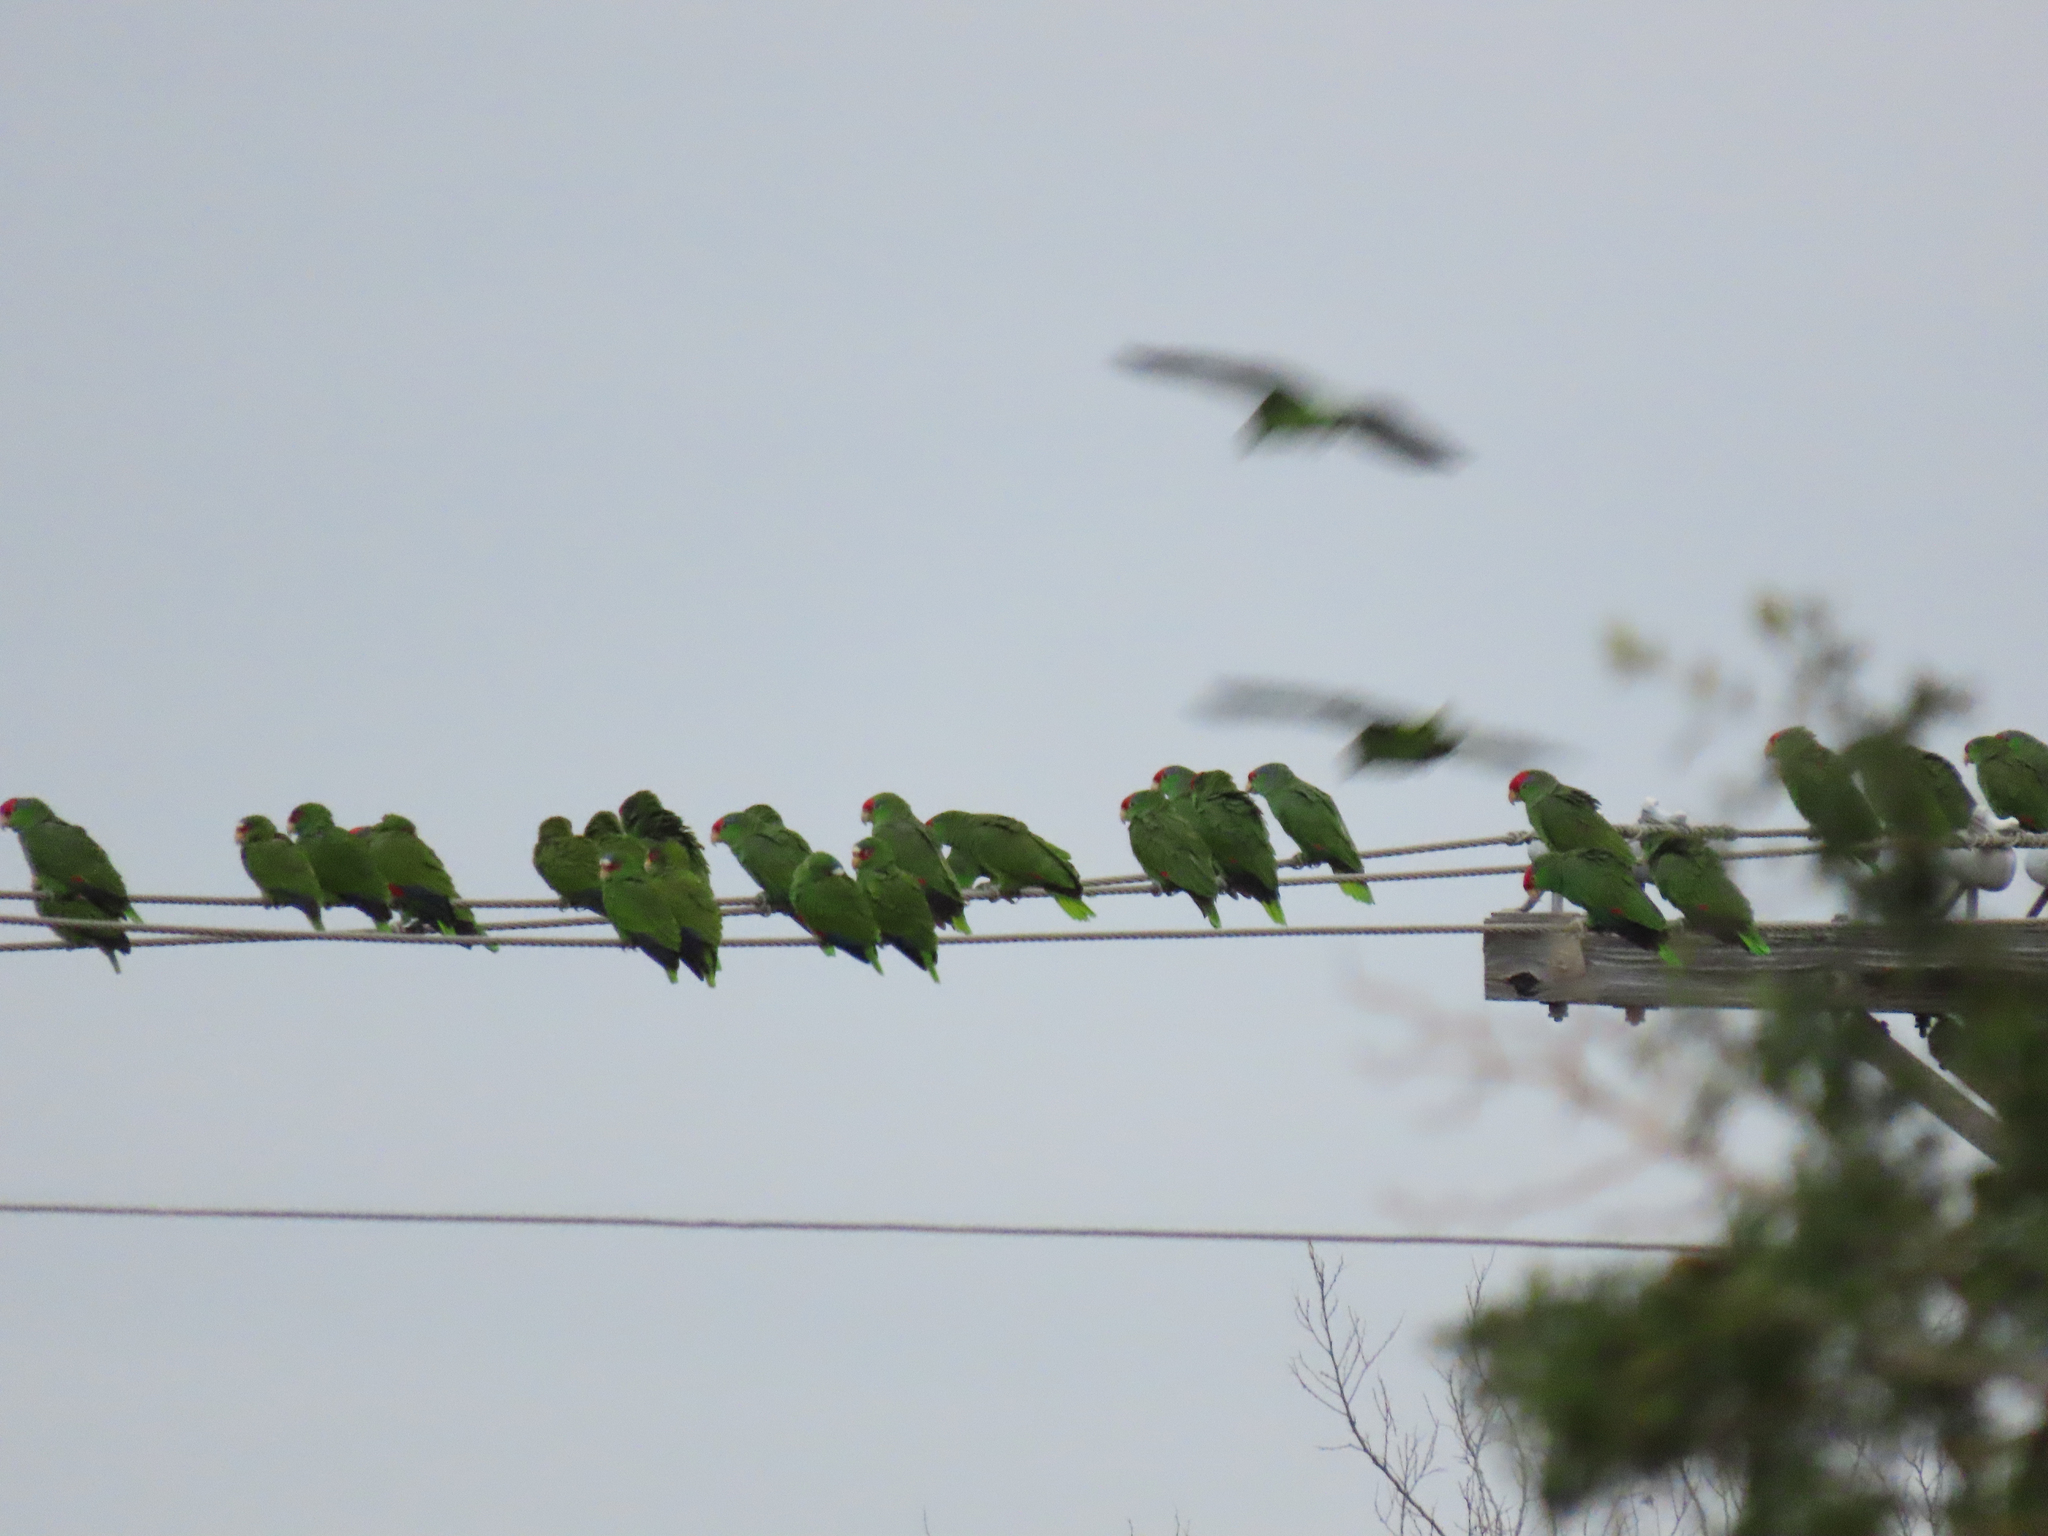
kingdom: Animalia
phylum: Chordata
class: Aves
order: Psittaciformes
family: Psittacidae
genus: Amazona
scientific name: Amazona viridigenalis
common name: Red-crowned amazon
